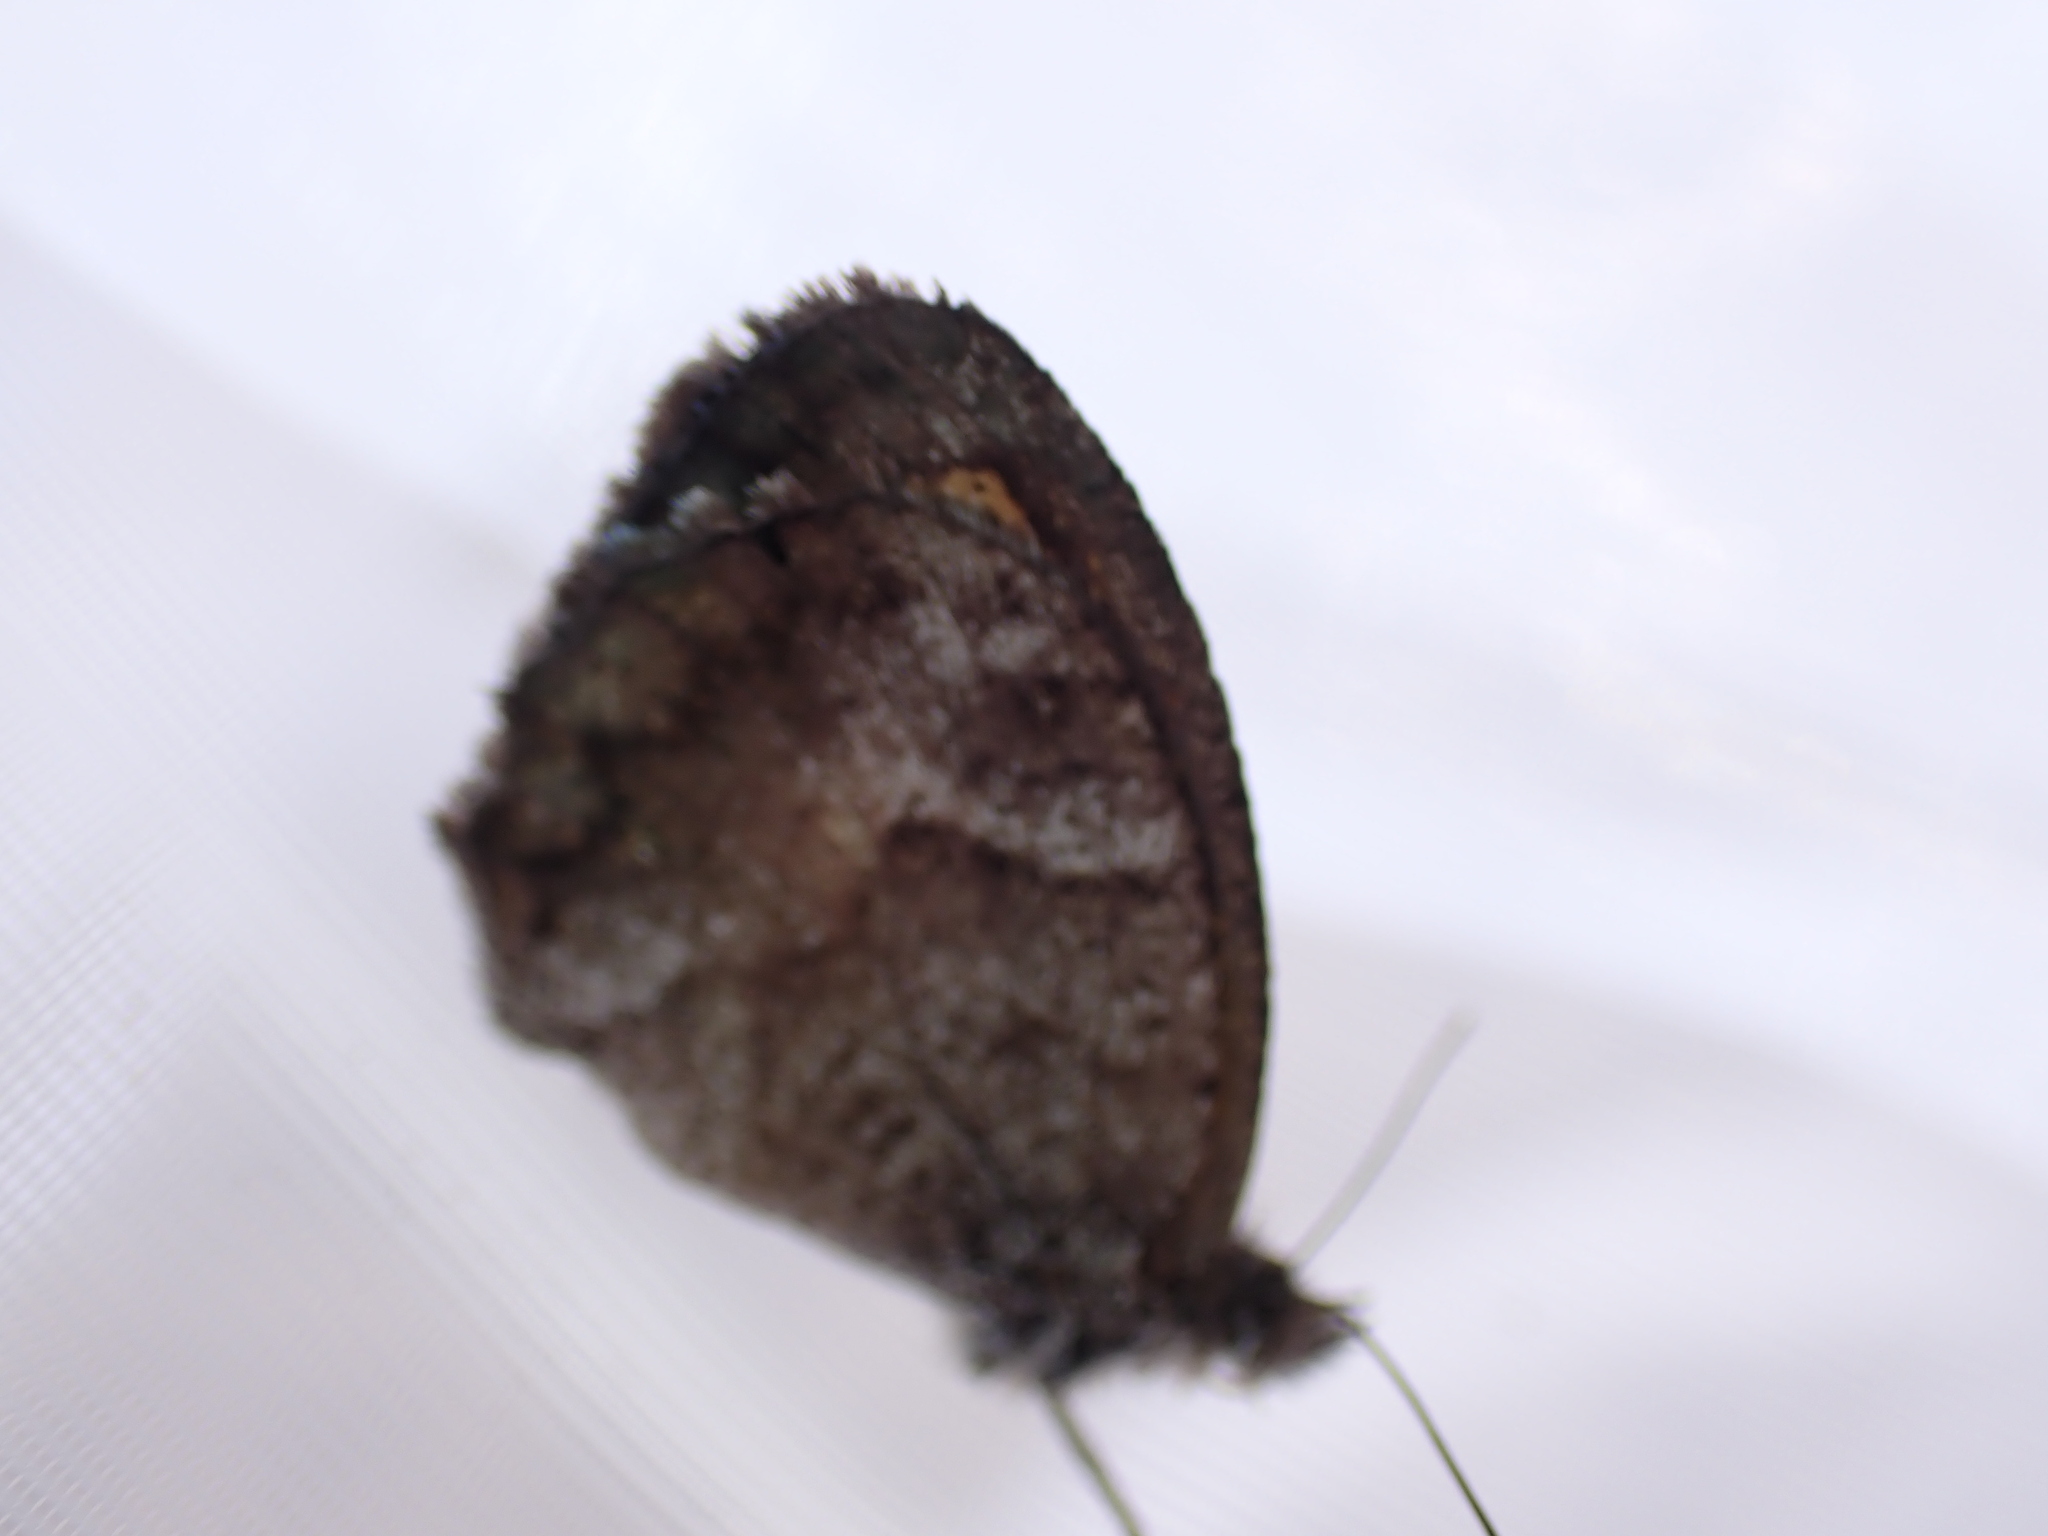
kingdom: Animalia
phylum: Arthropoda
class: Insecta
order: Lepidoptera
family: Nymphalidae
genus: Pyronia
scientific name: Pyronia cecilia
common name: Southern gatekeeper
